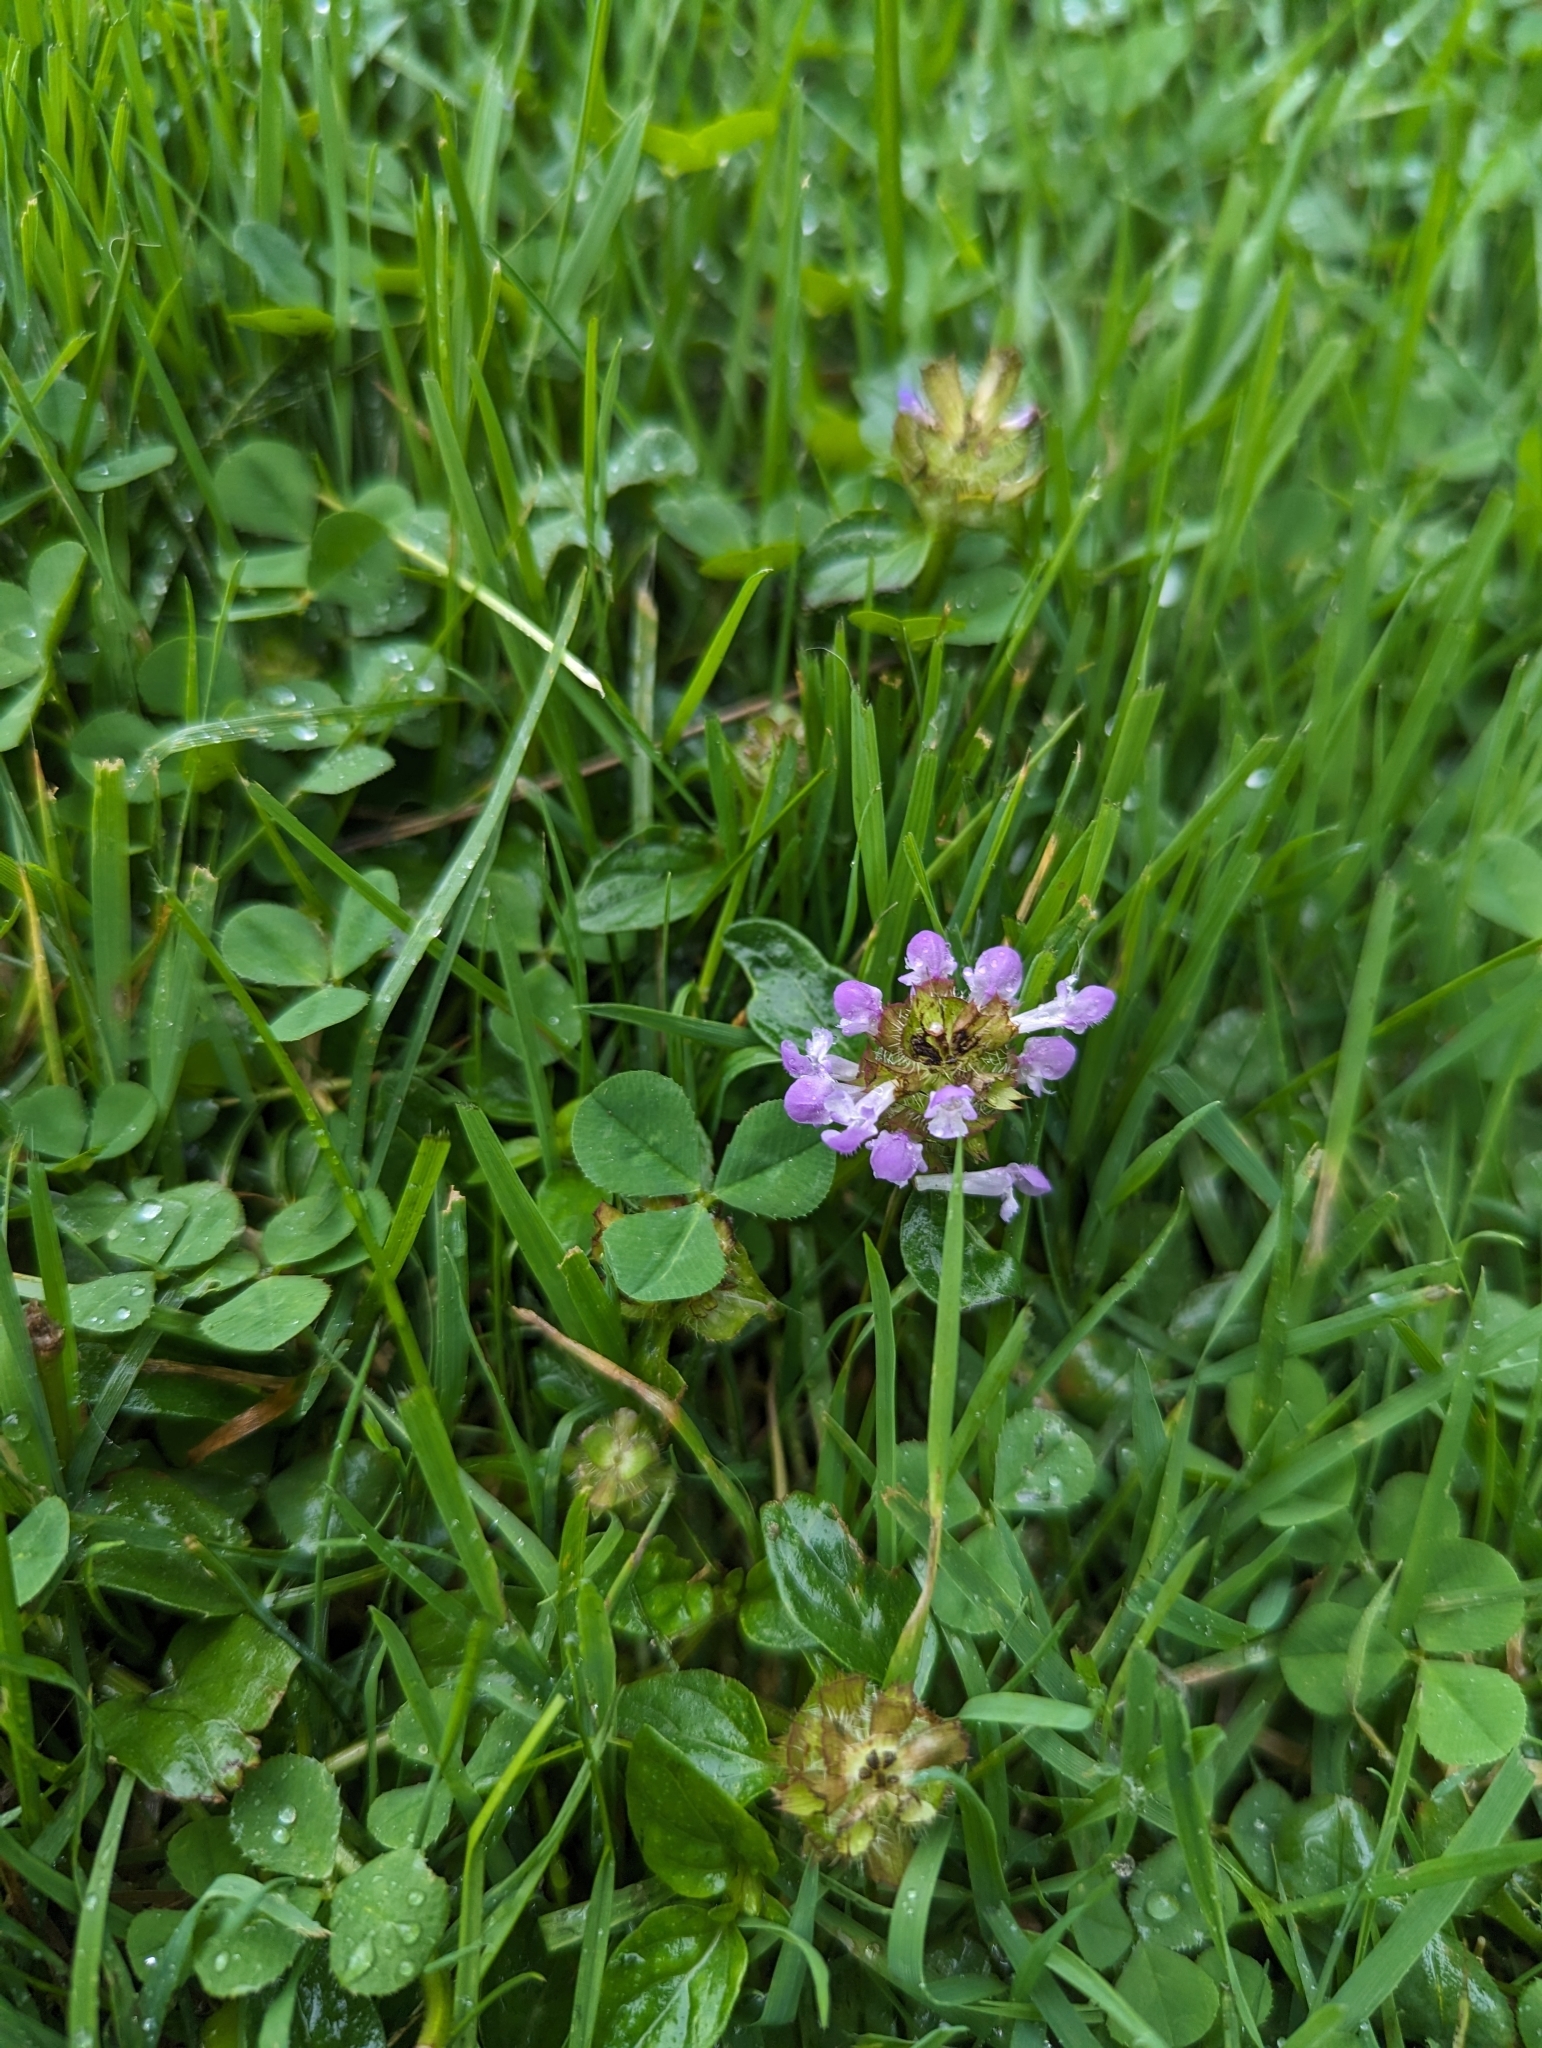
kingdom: Plantae
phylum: Tracheophyta
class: Magnoliopsida
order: Lamiales
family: Lamiaceae
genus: Prunella
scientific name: Prunella vulgaris
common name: Heal-all
